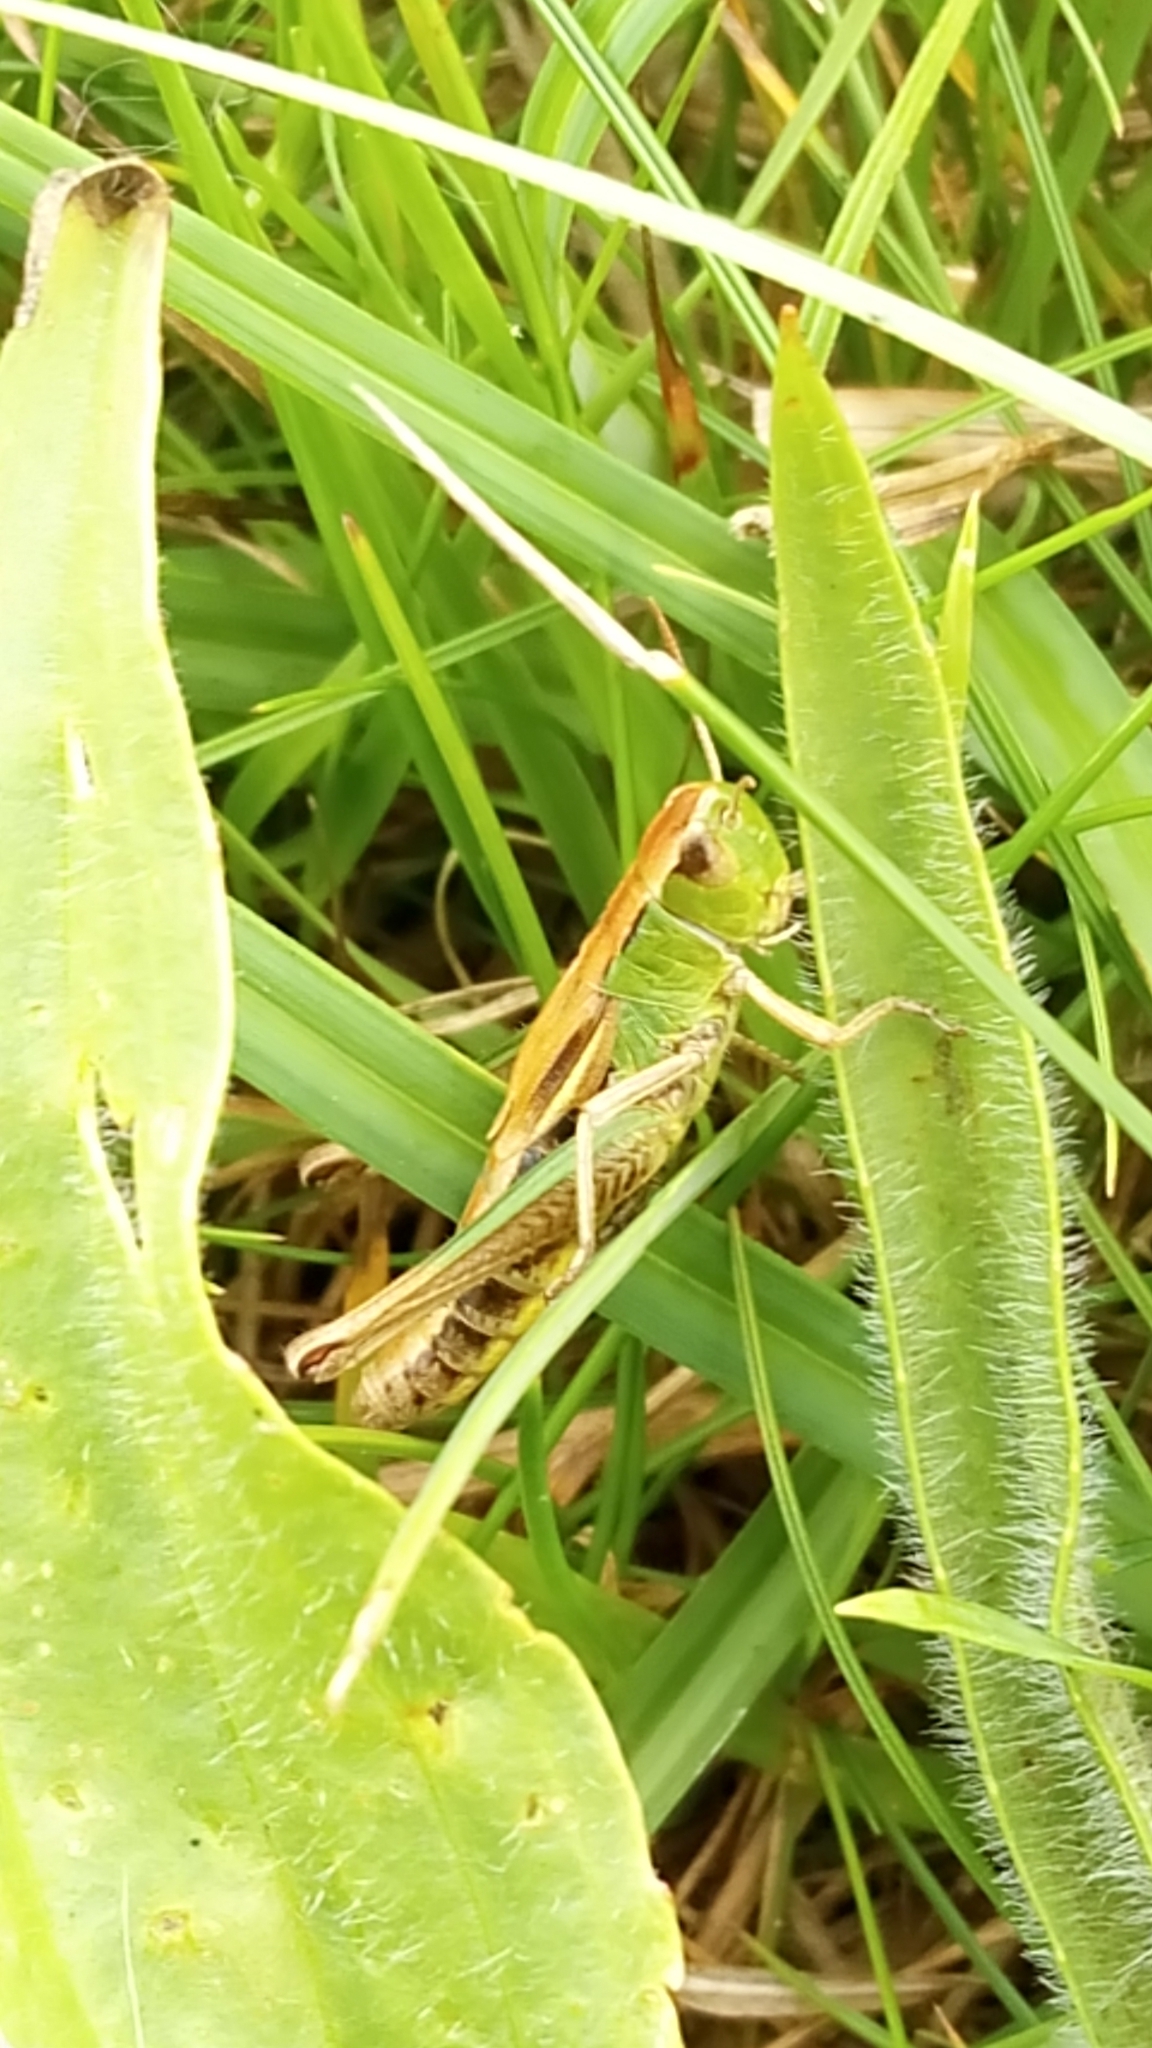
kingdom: Animalia
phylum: Arthropoda
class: Insecta
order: Orthoptera
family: Acrididae
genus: Pseudochorthippus
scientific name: Pseudochorthippus parallelus
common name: Meadow grasshopper
